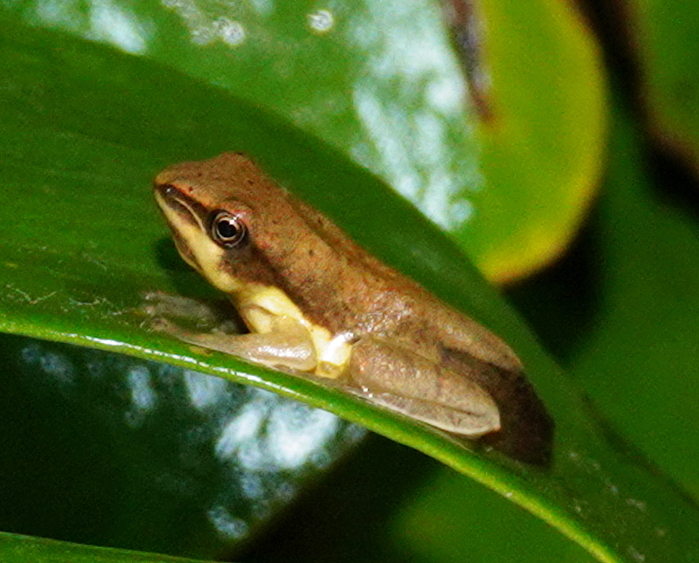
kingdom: Animalia
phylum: Chordata
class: Amphibia
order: Anura
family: Rhacophoridae
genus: Taruga
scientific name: Taruga eques
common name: Montane hour-glass tree-frog
